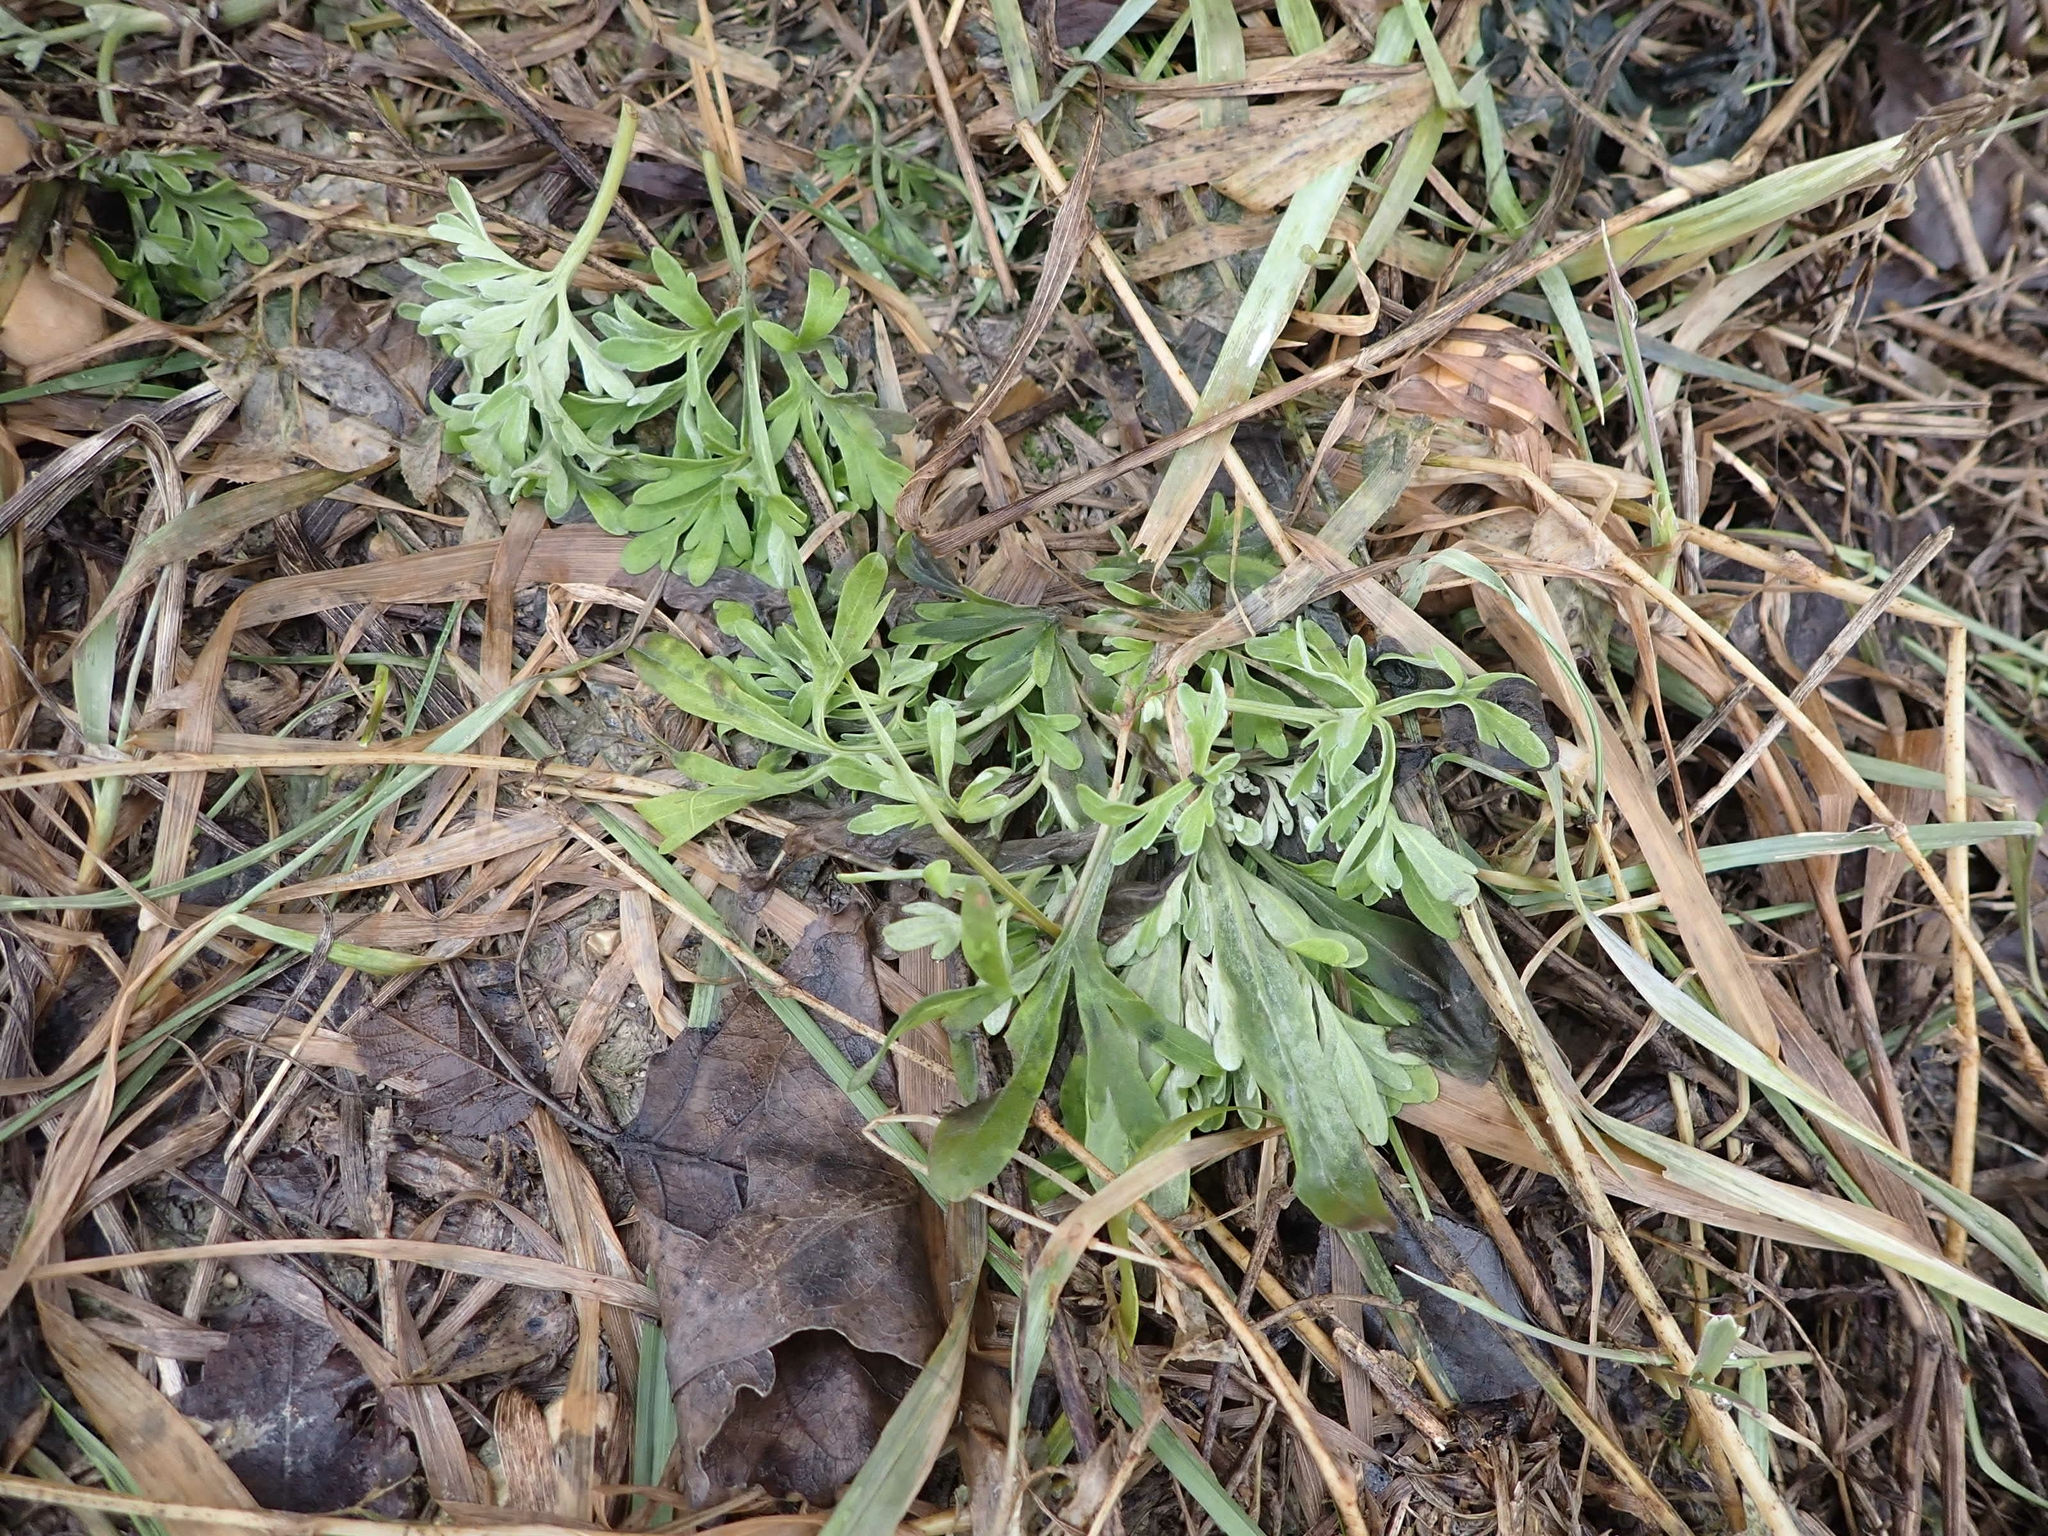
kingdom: Plantae
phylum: Tracheophyta
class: Magnoliopsida
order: Asterales
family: Asteraceae
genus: Artemisia
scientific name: Artemisia absinthium
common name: Wormwood
